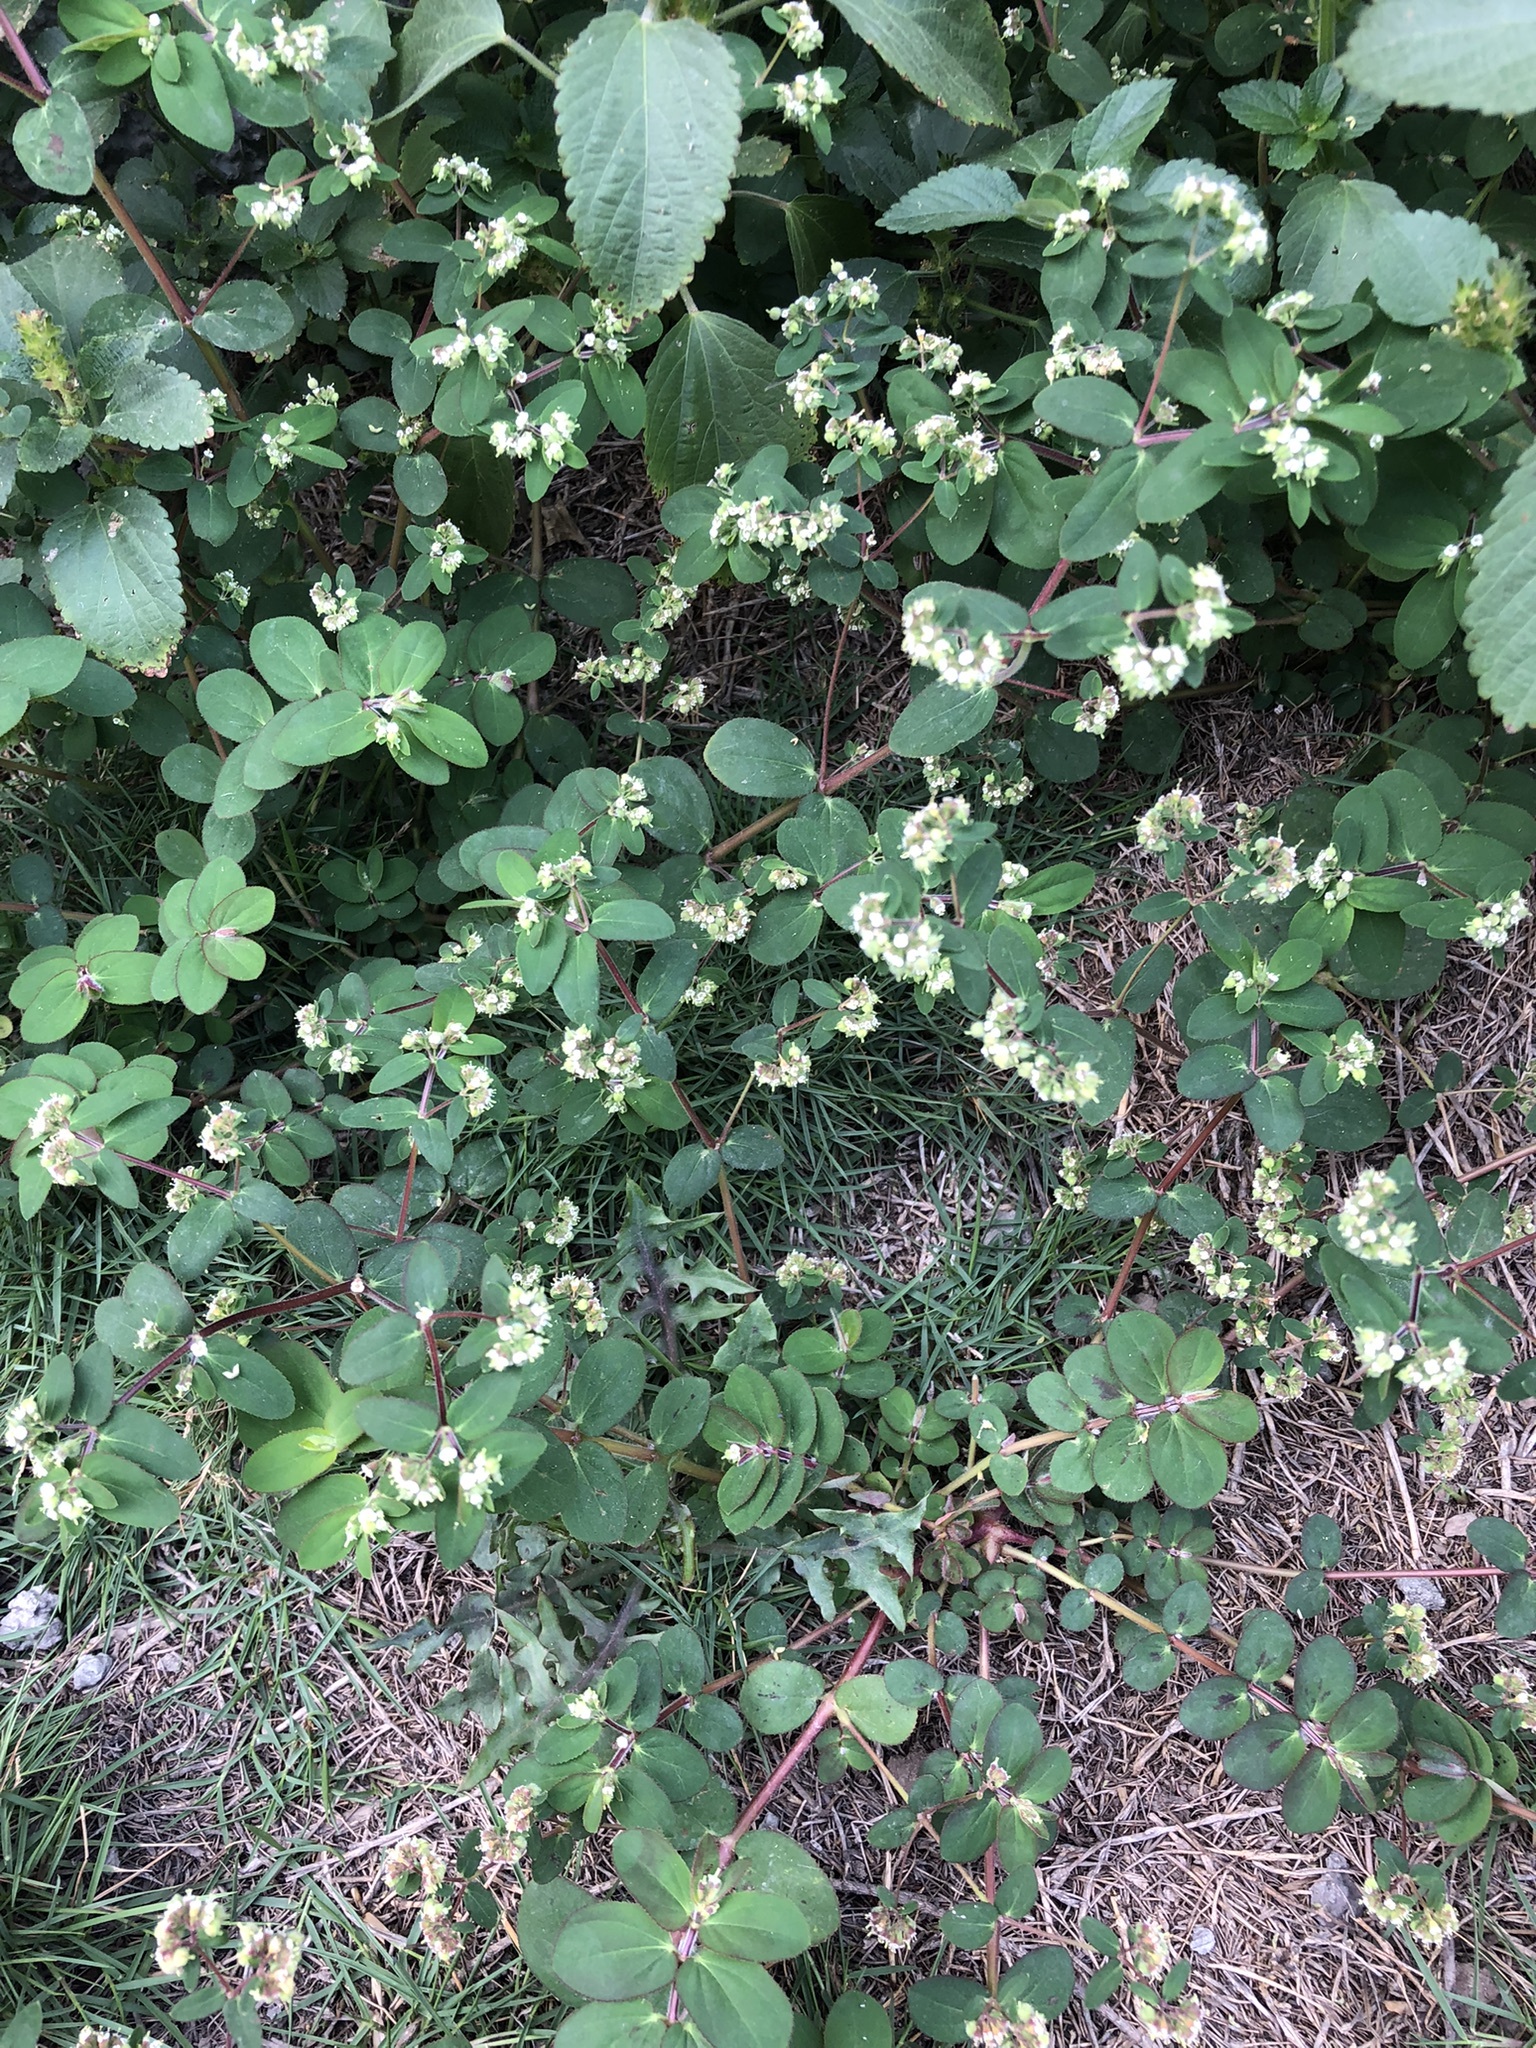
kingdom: Plantae
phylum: Tracheophyta
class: Magnoliopsida
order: Malpighiales
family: Euphorbiaceae
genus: Euphorbia
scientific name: Euphorbia lasiocarpa
